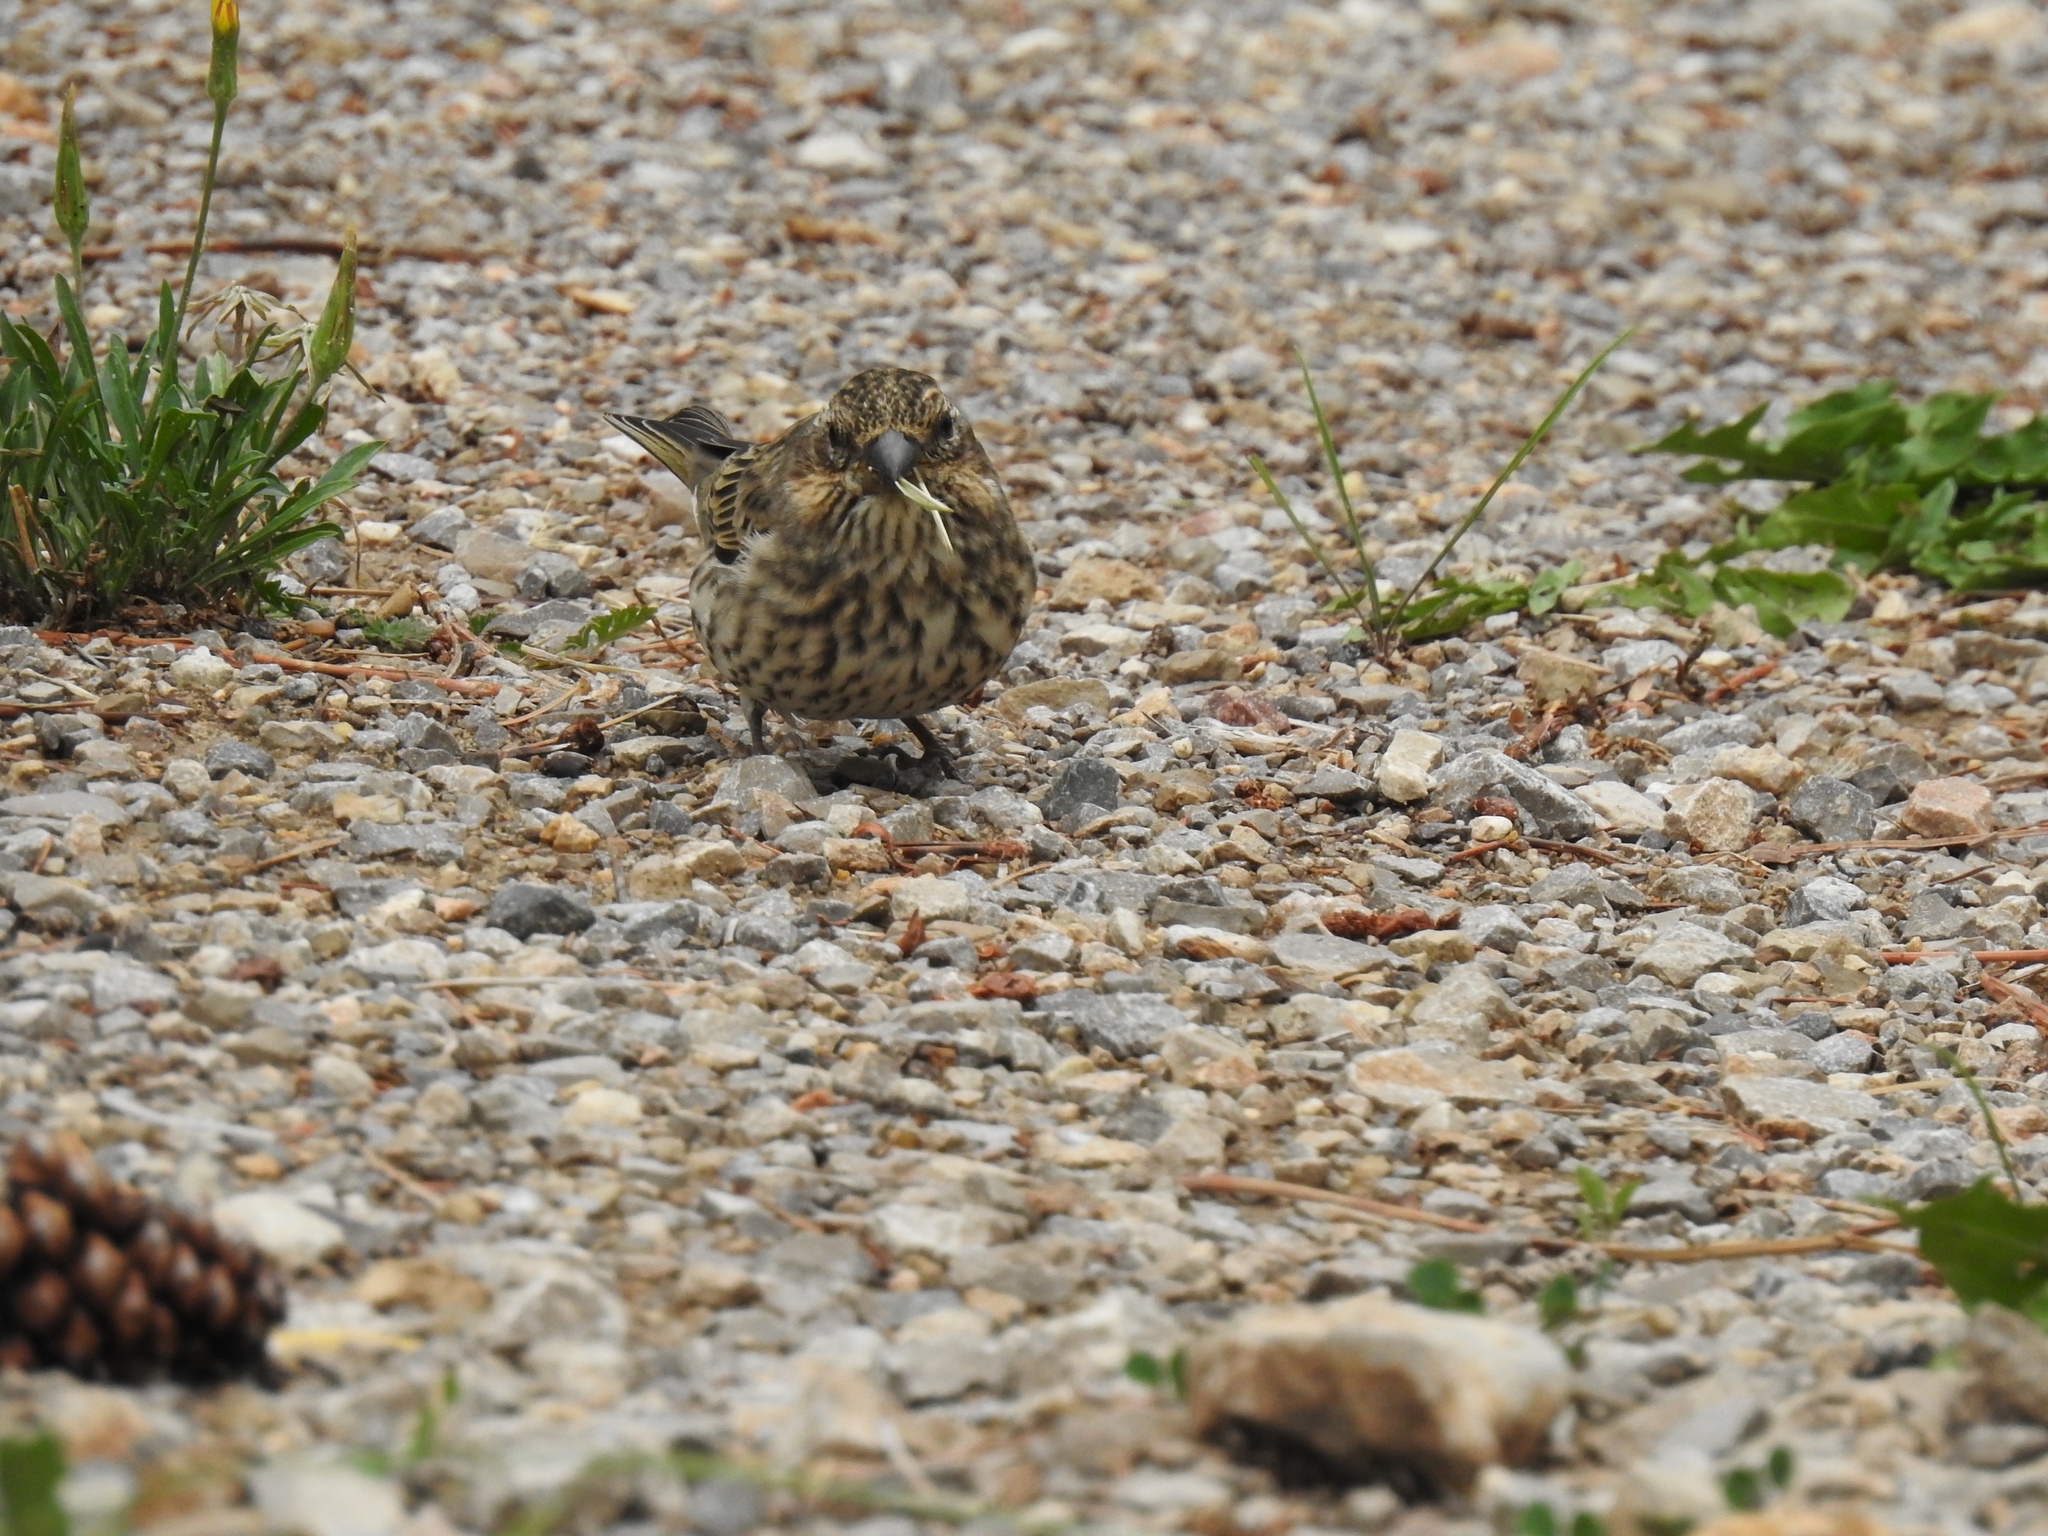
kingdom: Animalia
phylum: Chordata
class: Aves
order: Passeriformes
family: Fringillidae
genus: Haemorhous
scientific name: Haemorhous cassinii
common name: Cassin's finch
